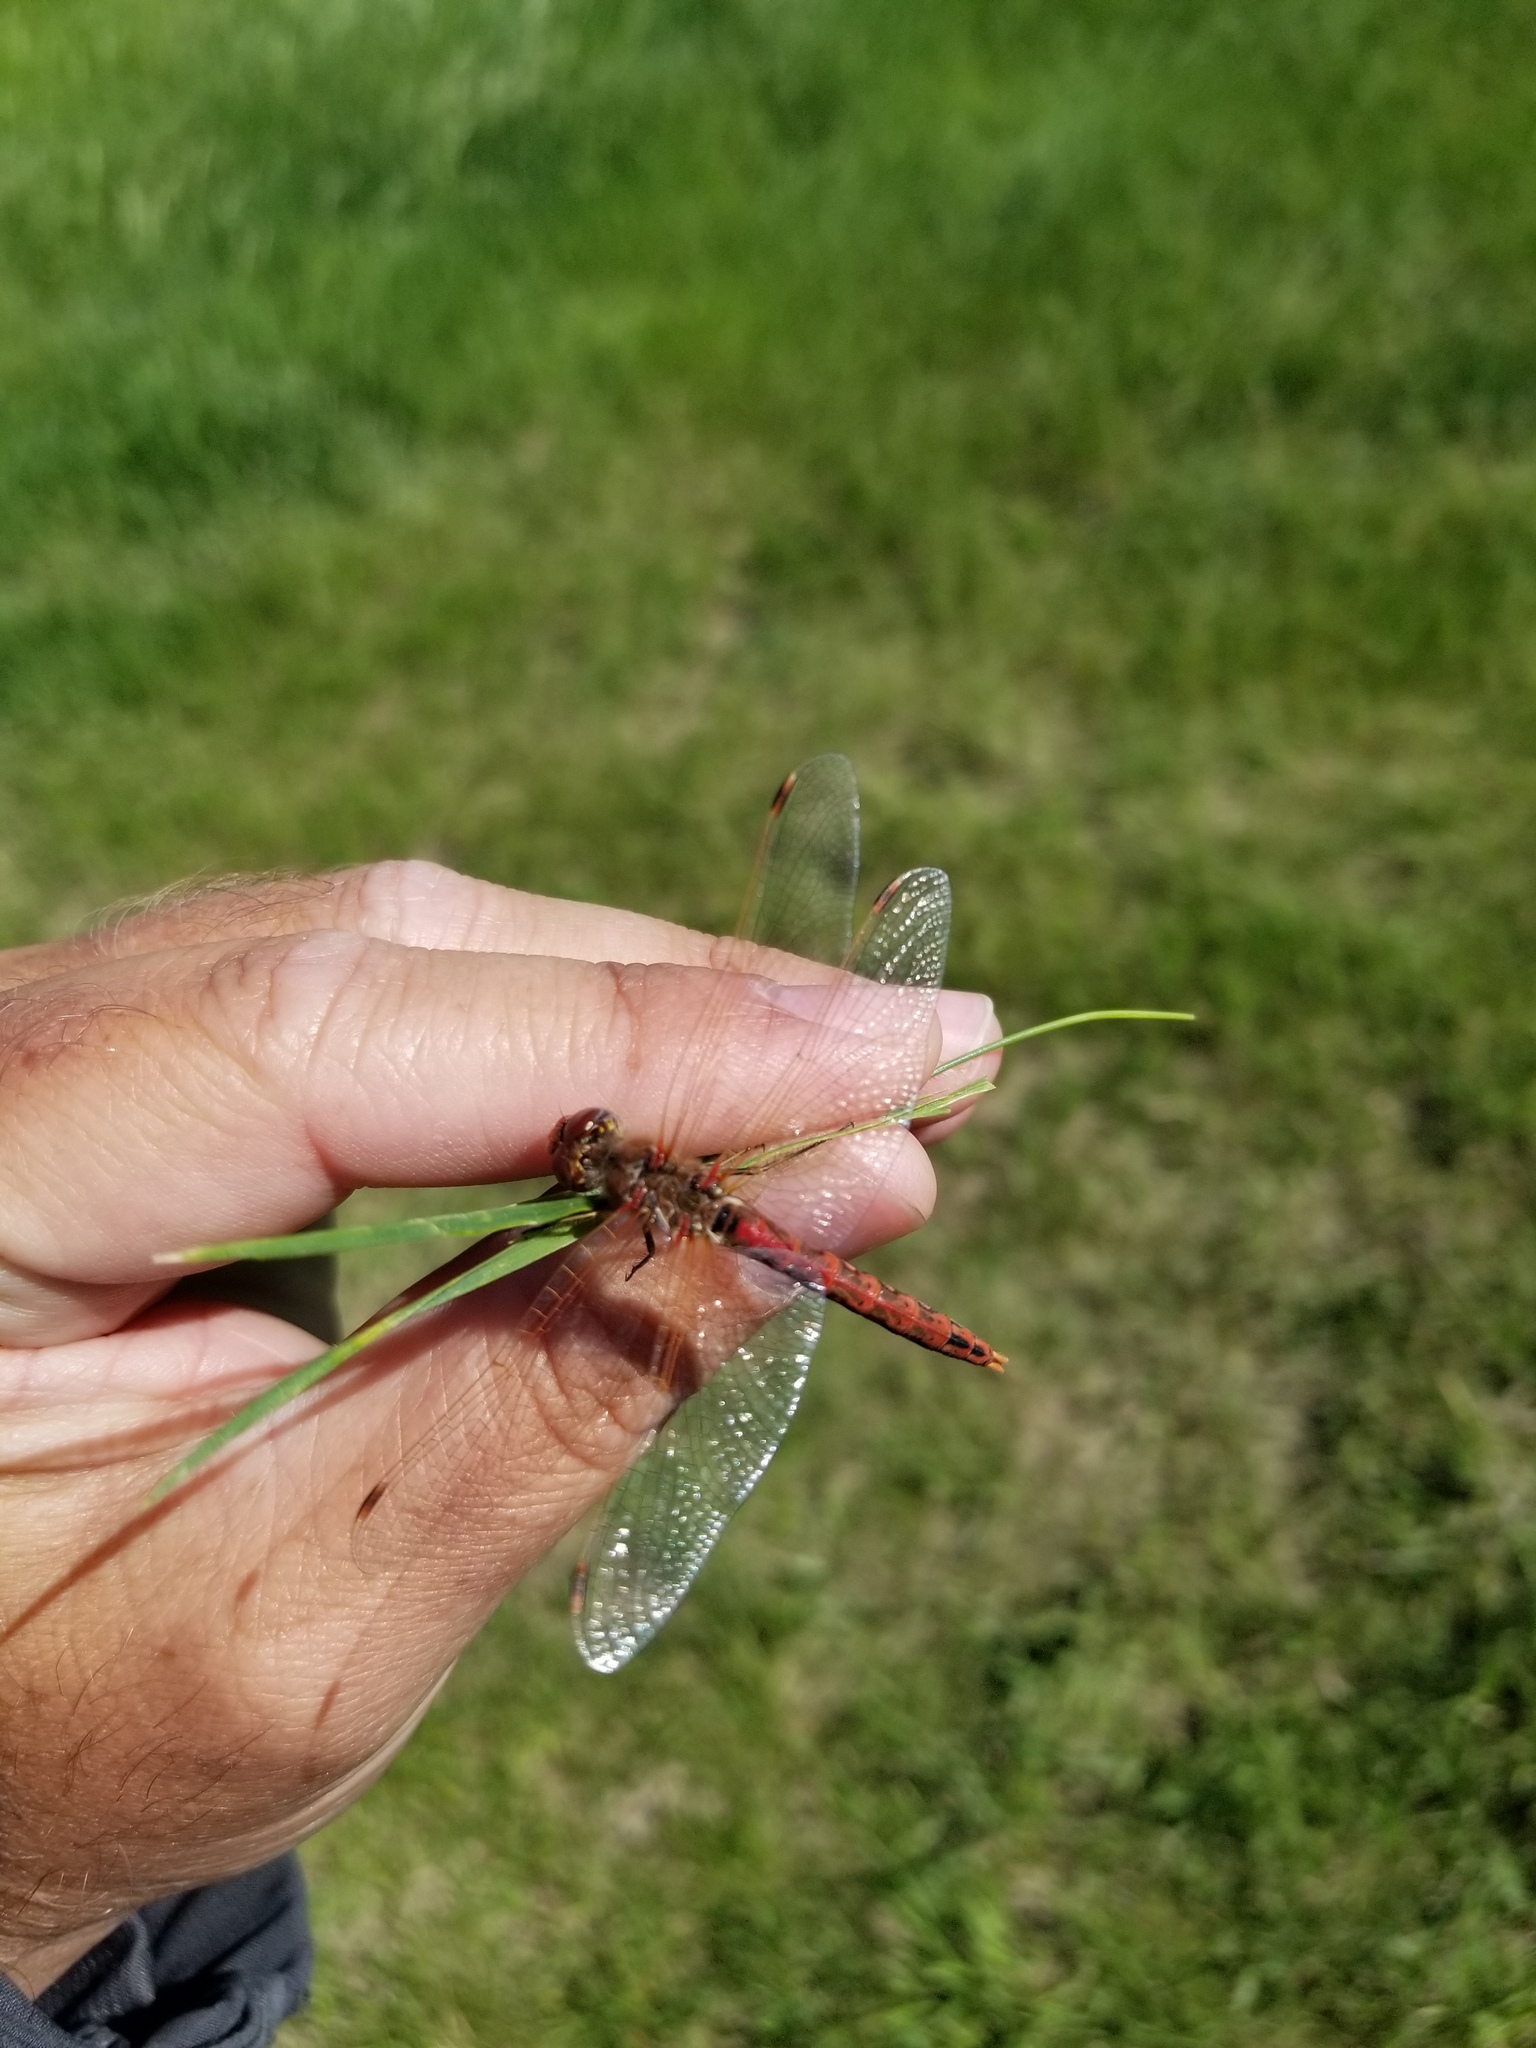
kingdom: Animalia
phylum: Arthropoda
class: Insecta
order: Odonata
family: Libellulidae
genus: Sympetrum
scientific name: Sympetrum corruptum
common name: Variegated meadowhawk
